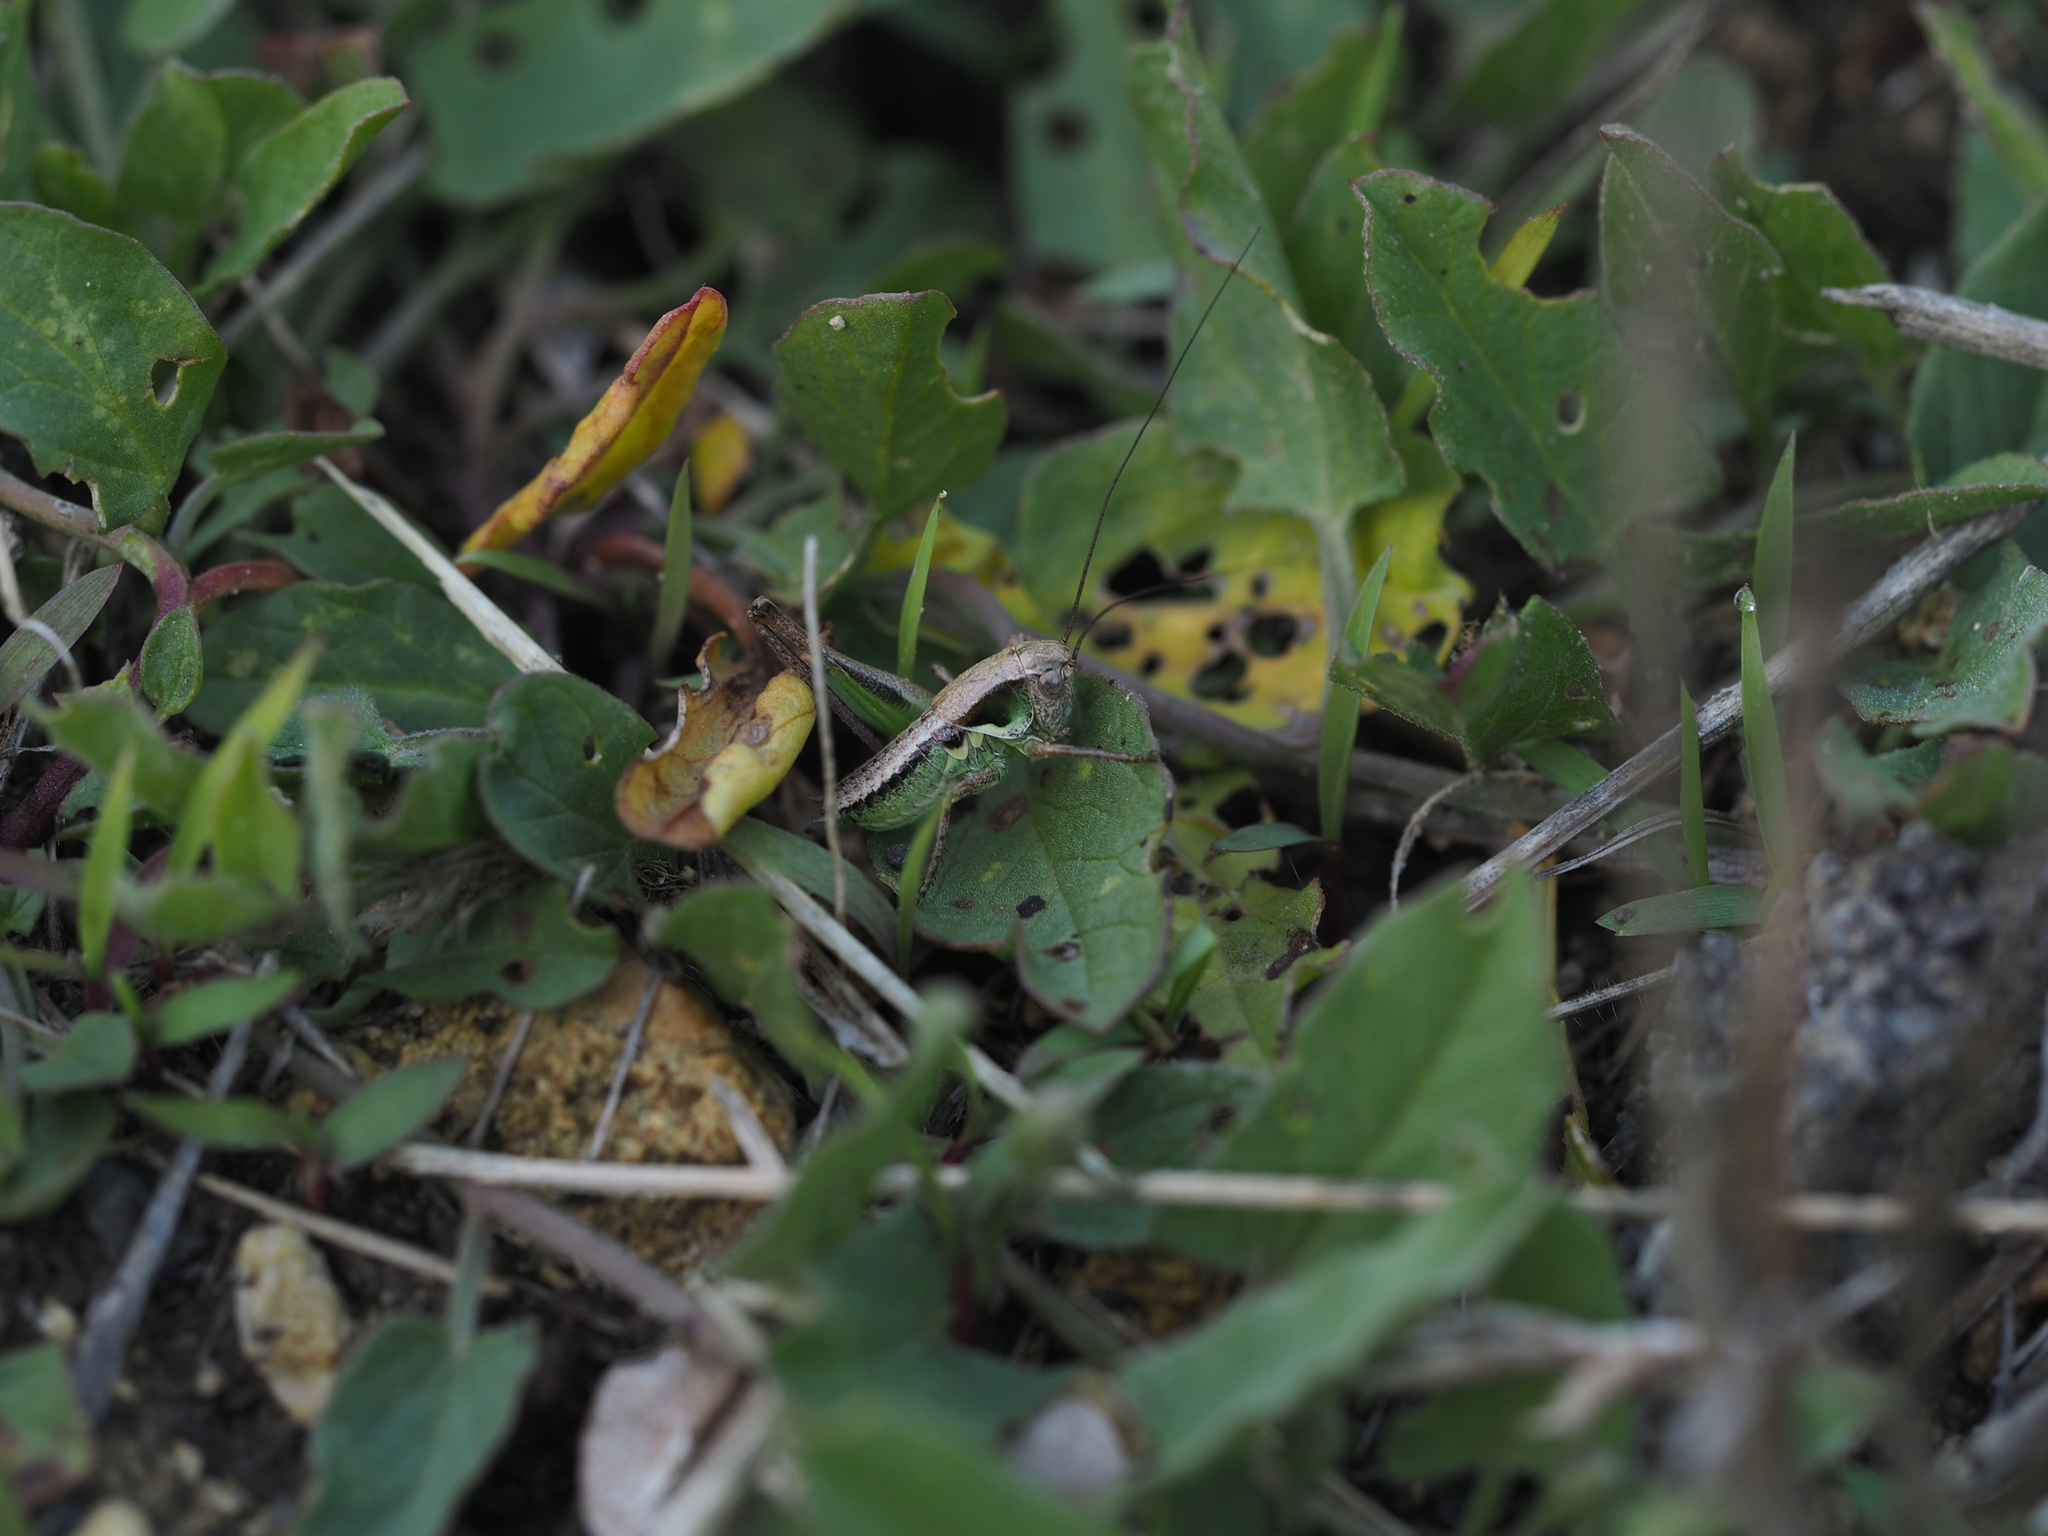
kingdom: Animalia
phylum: Arthropoda
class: Insecta
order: Orthoptera
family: Tettigoniidae
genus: Platycleis
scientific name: Platycleis grisea
